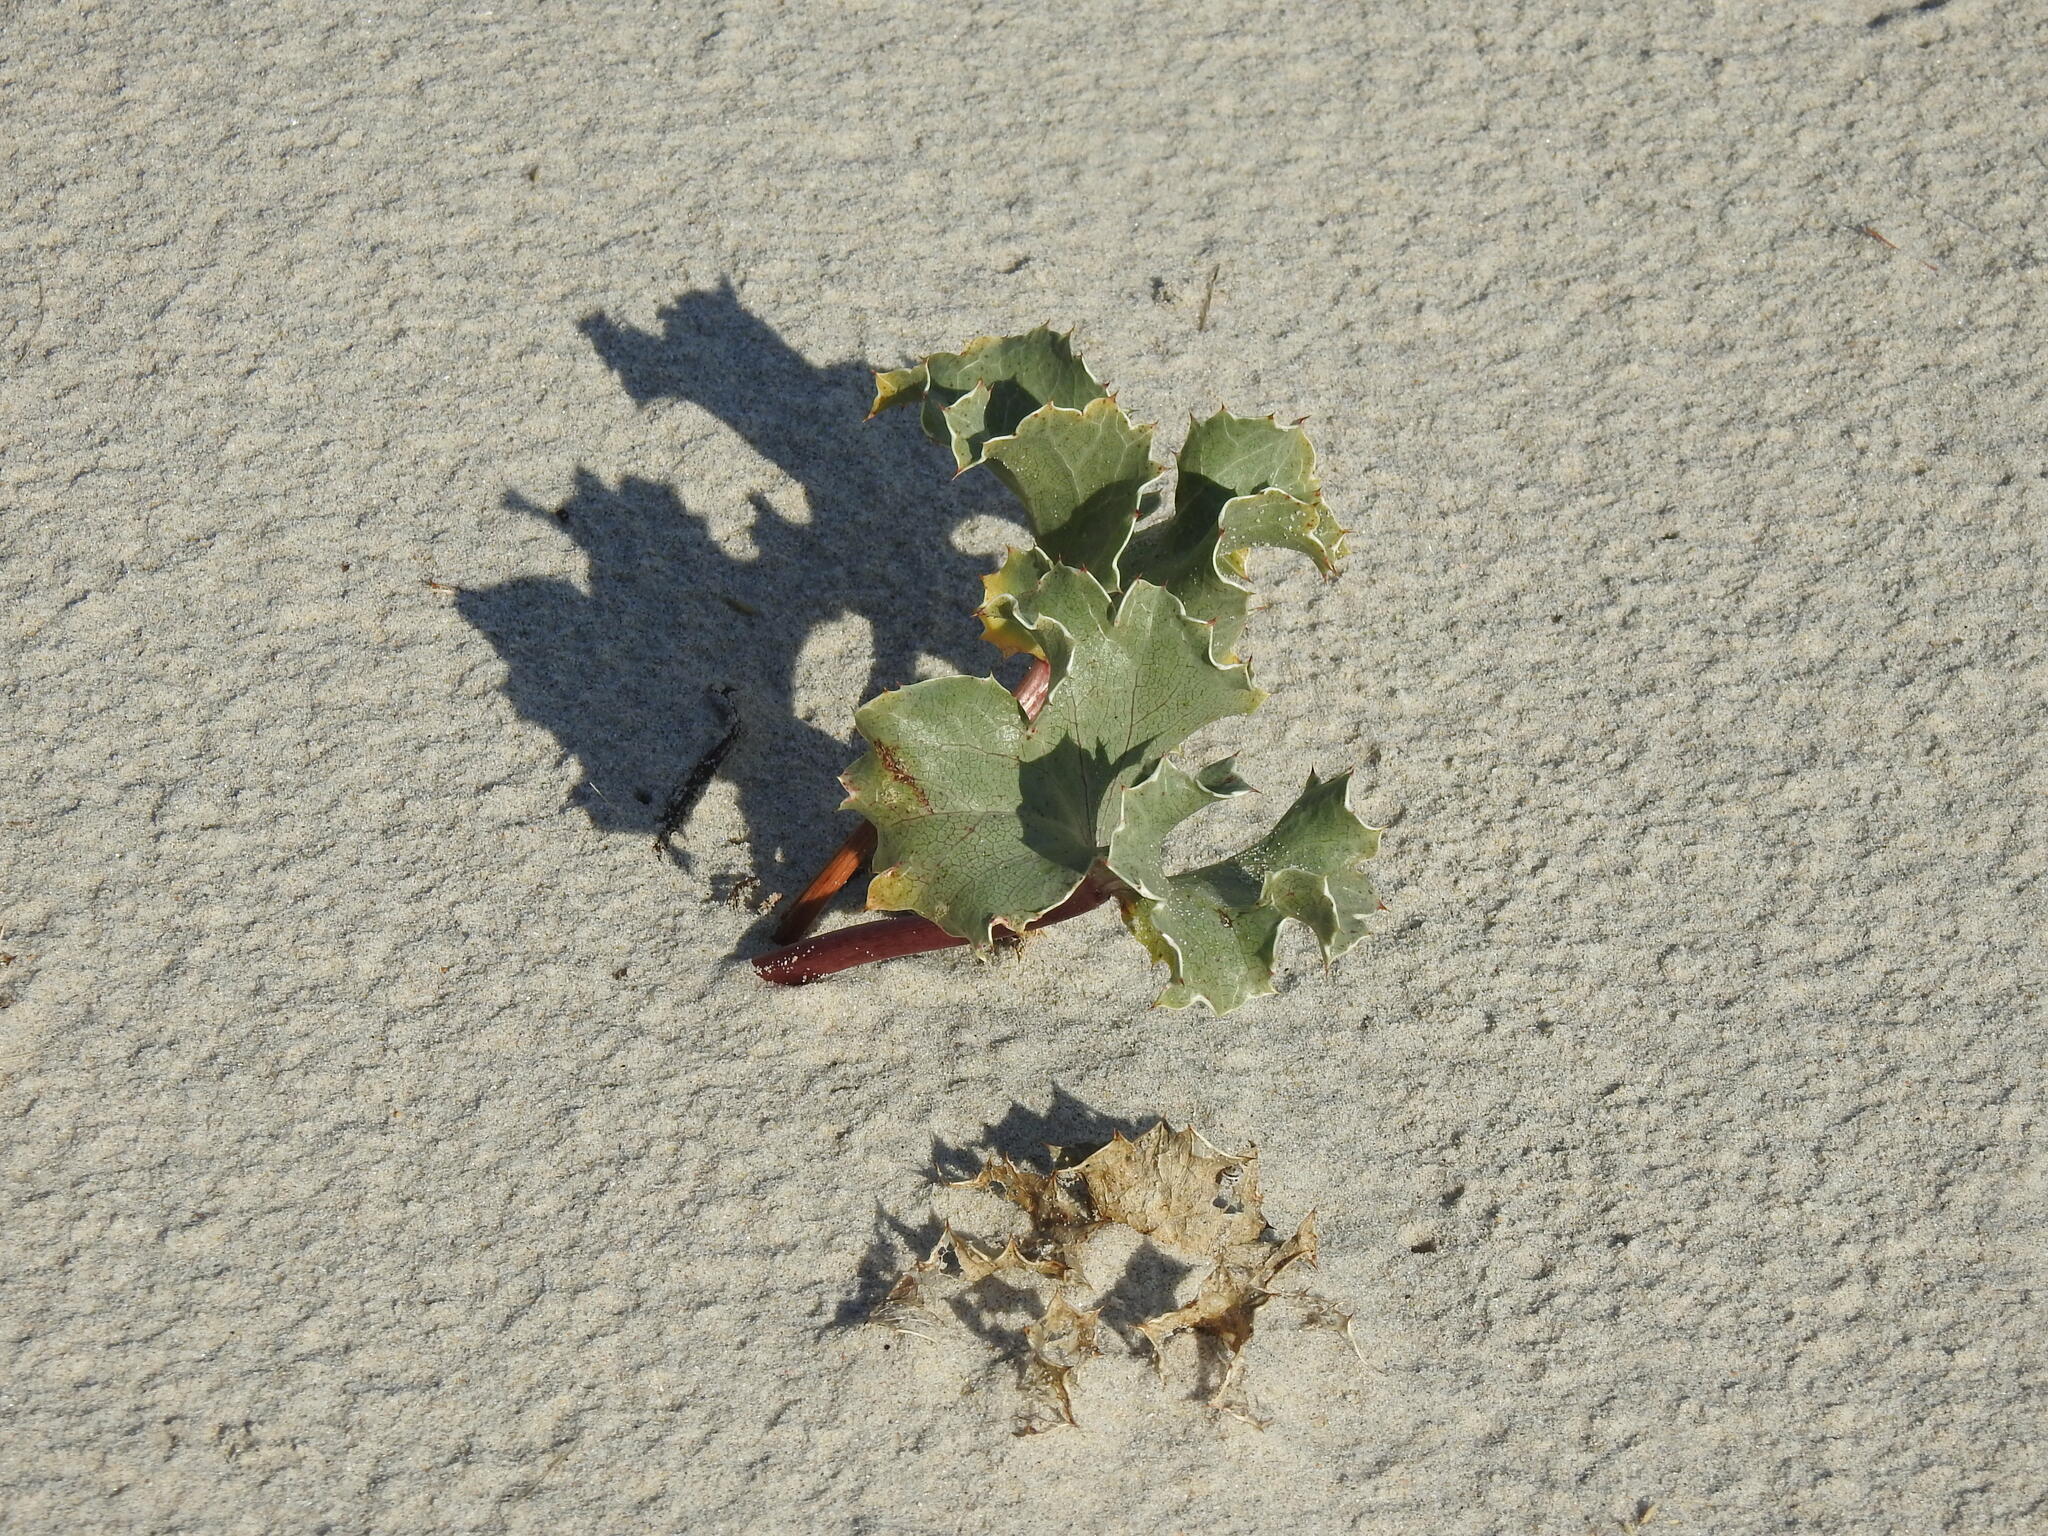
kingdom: Plantae
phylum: Tracheophyta
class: Magnoliopsida
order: Apiales
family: Apiaceae
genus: Eryngium
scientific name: Eryngium maritimum
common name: Sea-holly
